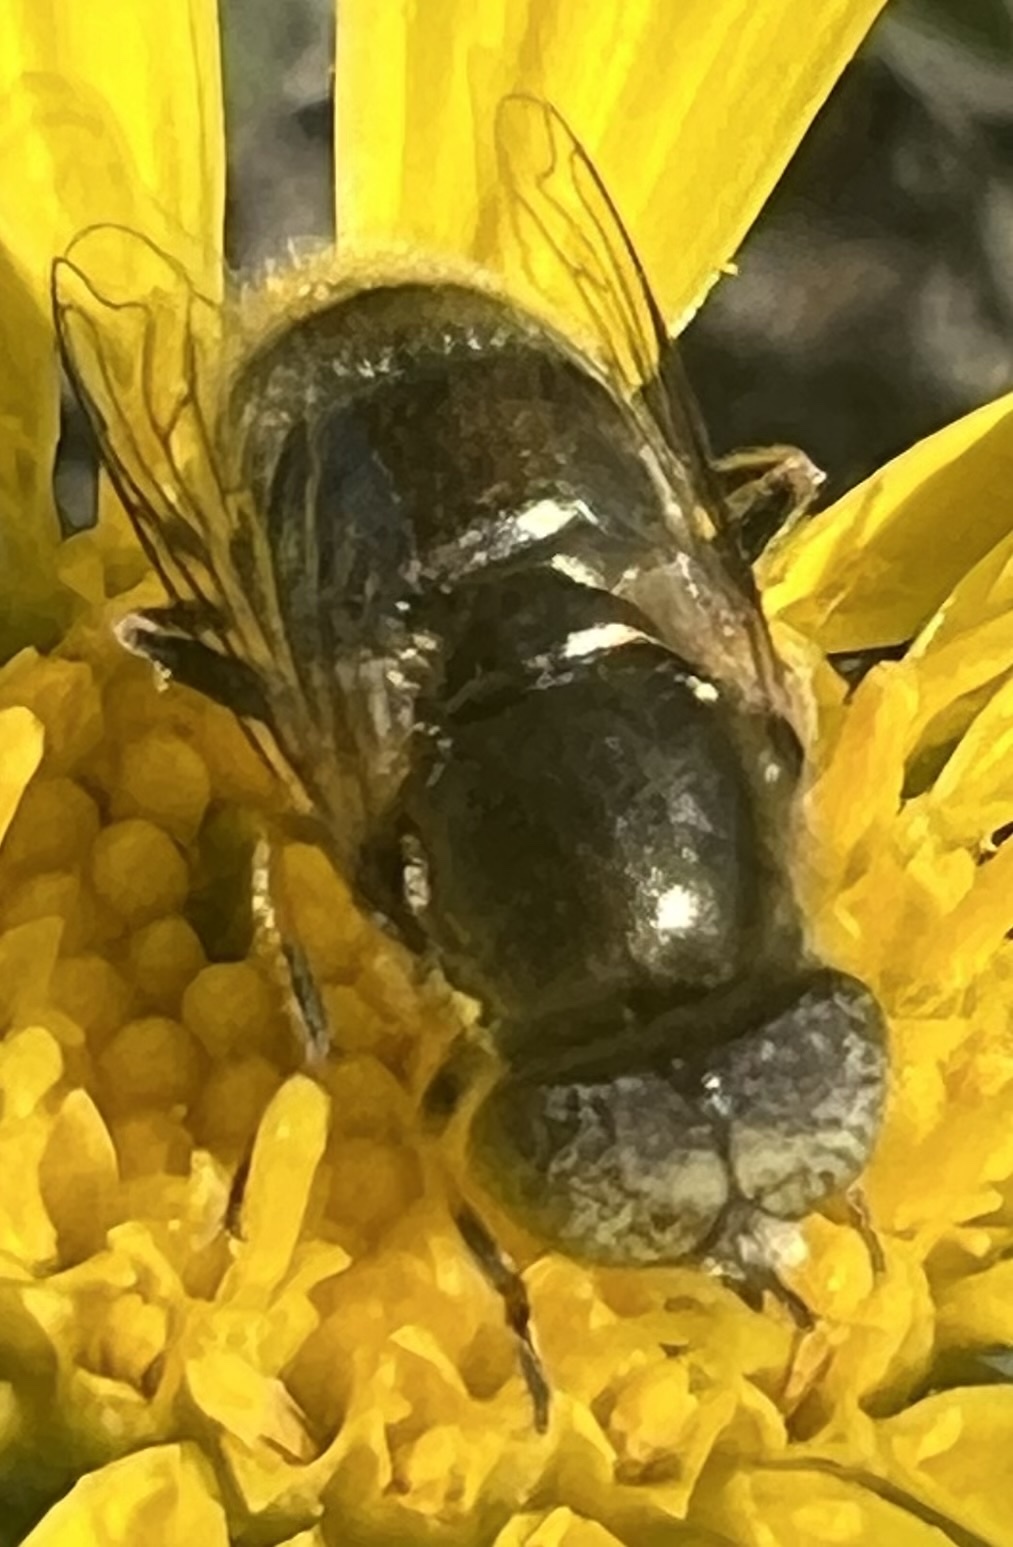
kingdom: Animalia
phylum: Arthropoda
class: Insecta
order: Diptera
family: Syrphidae
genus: Eristalinus
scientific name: Eristalinus aeneus
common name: Syrphid fly
